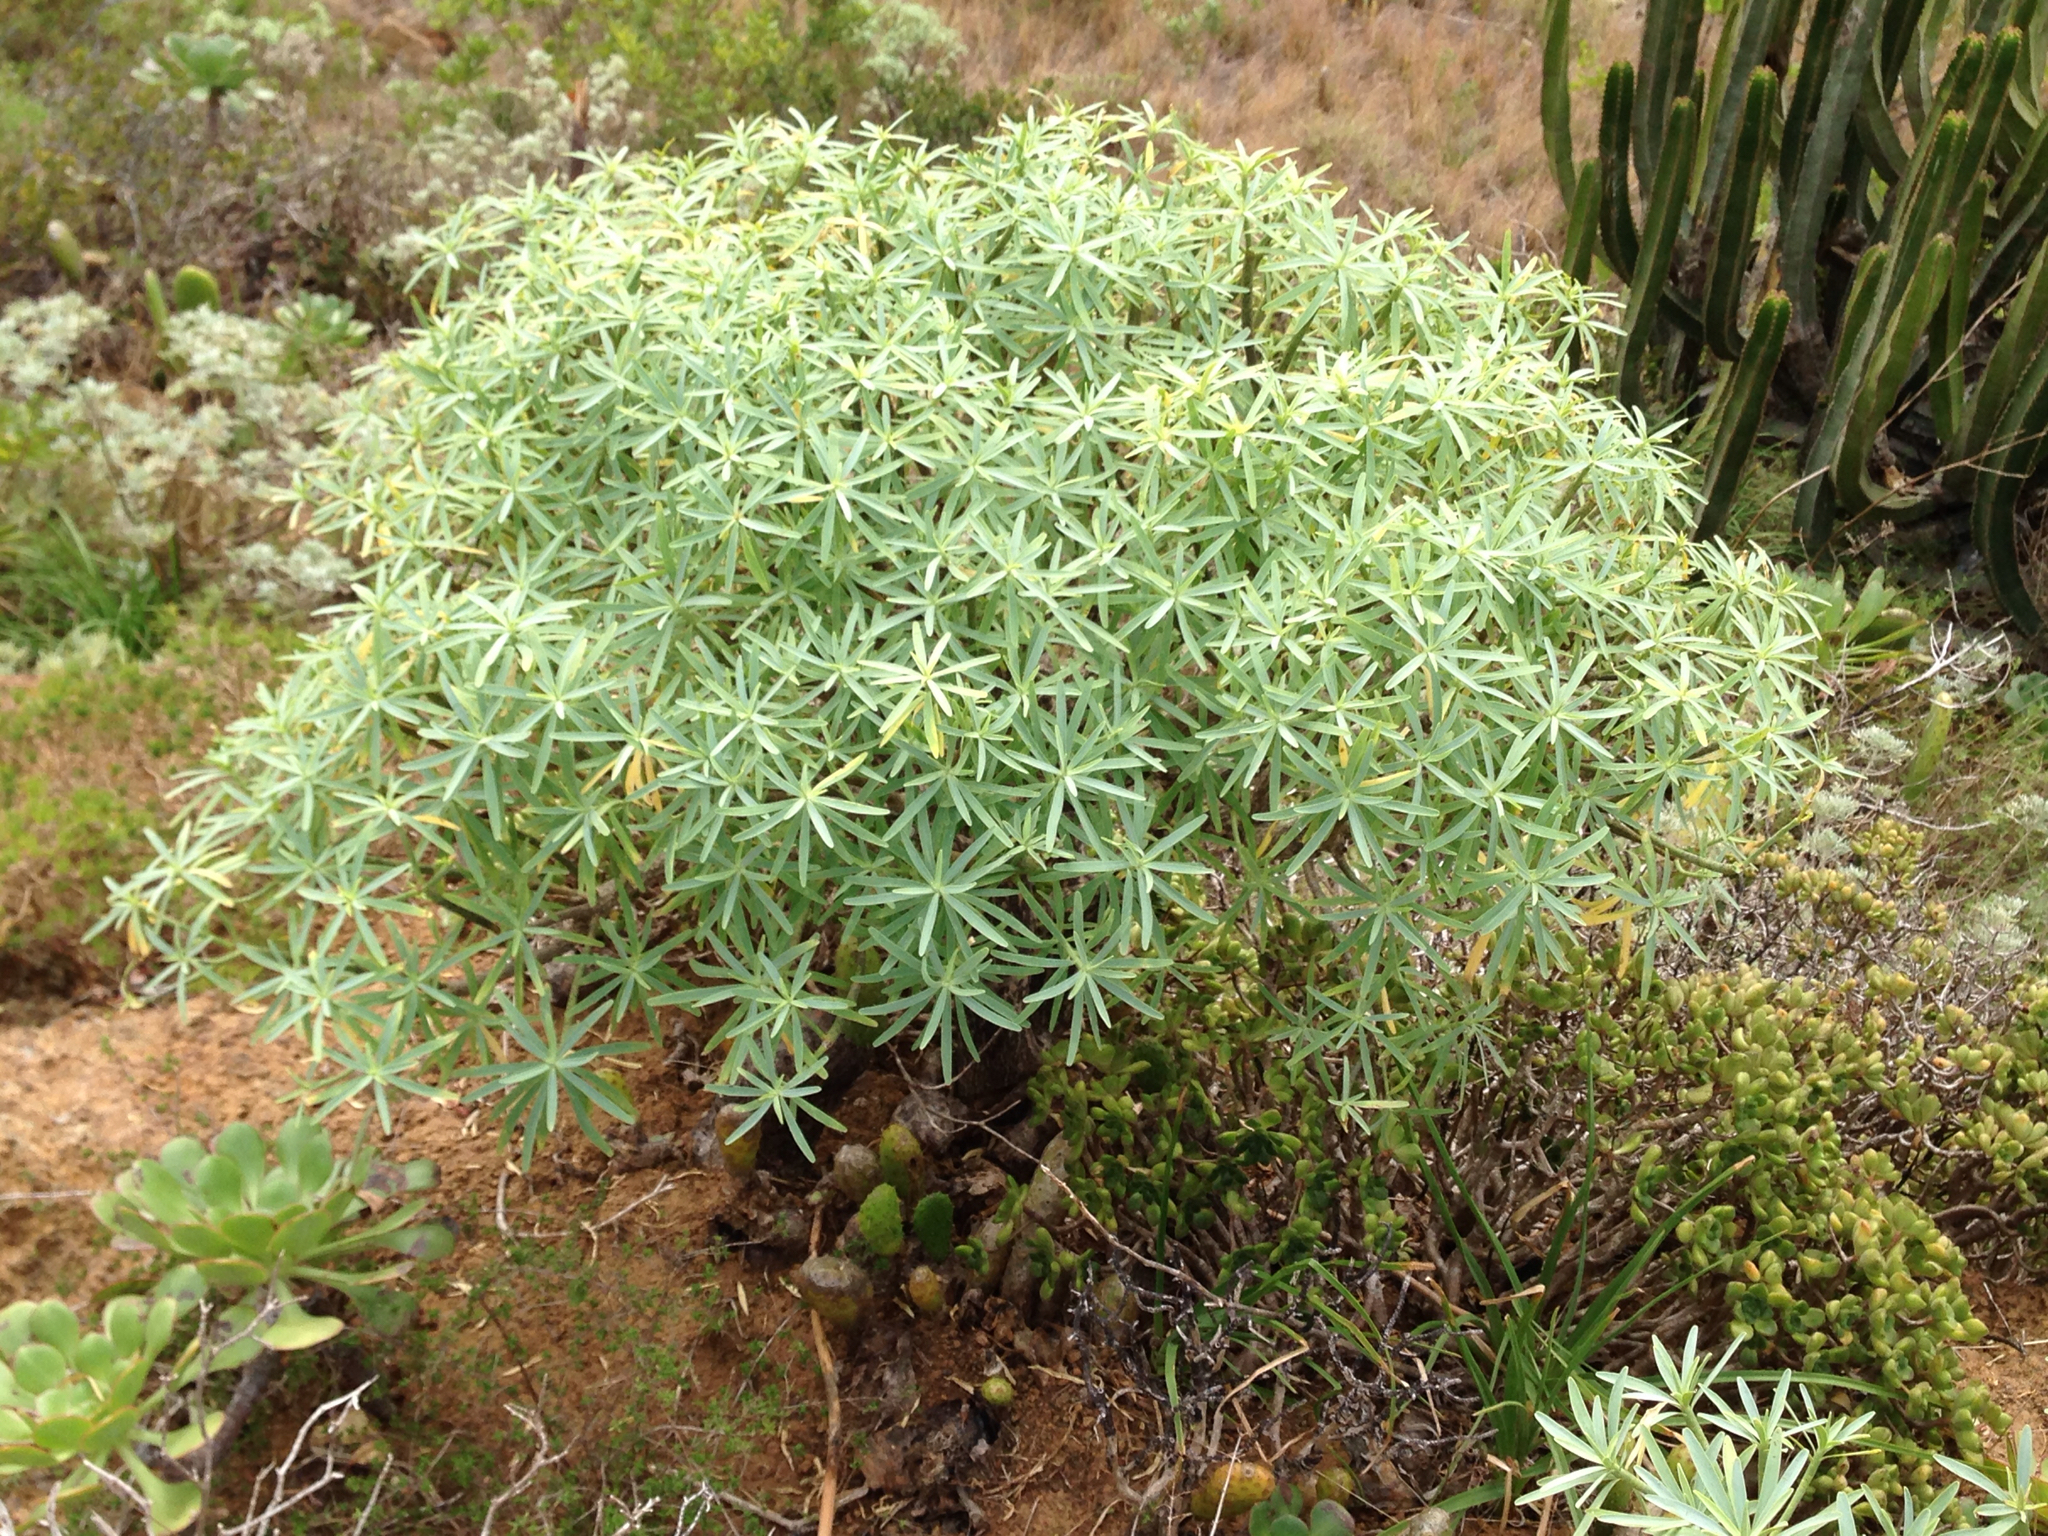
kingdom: Plantae
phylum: Tracheophyta
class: Magnoliopsida
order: Malpighiales
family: Euphorbiaceae
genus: Euphorbia
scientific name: Euphorbia lamarckii
